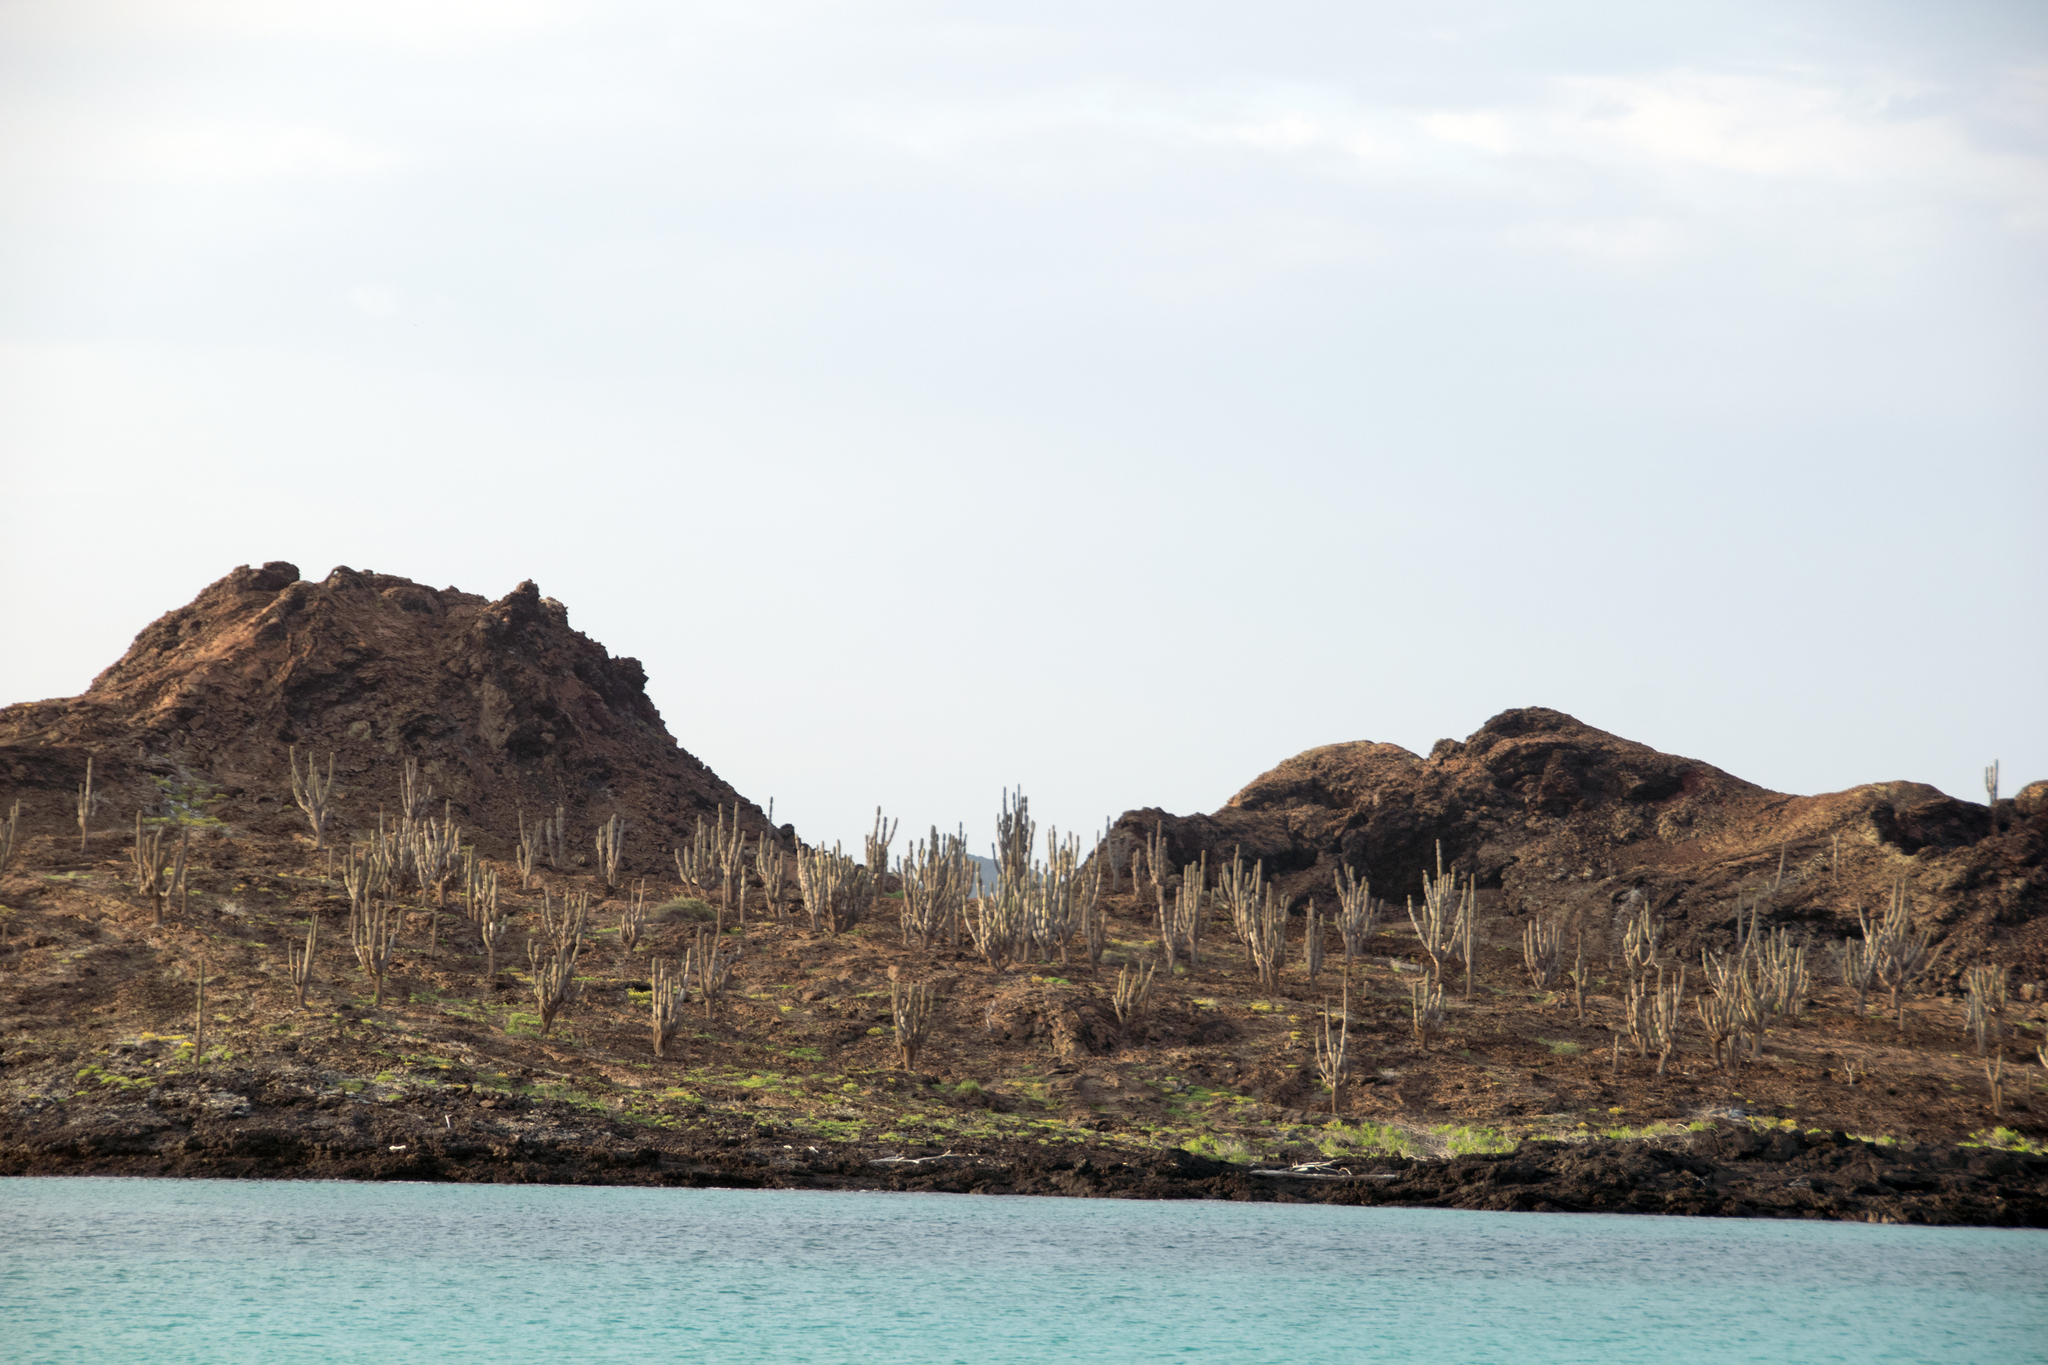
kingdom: Plantae
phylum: Tracheophyta
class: Magnoliopsida
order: Caryophyllales
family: Cactaceae
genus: Jasminocereus
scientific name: Jasminocereus thouarsii
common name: Candelabra cactus
